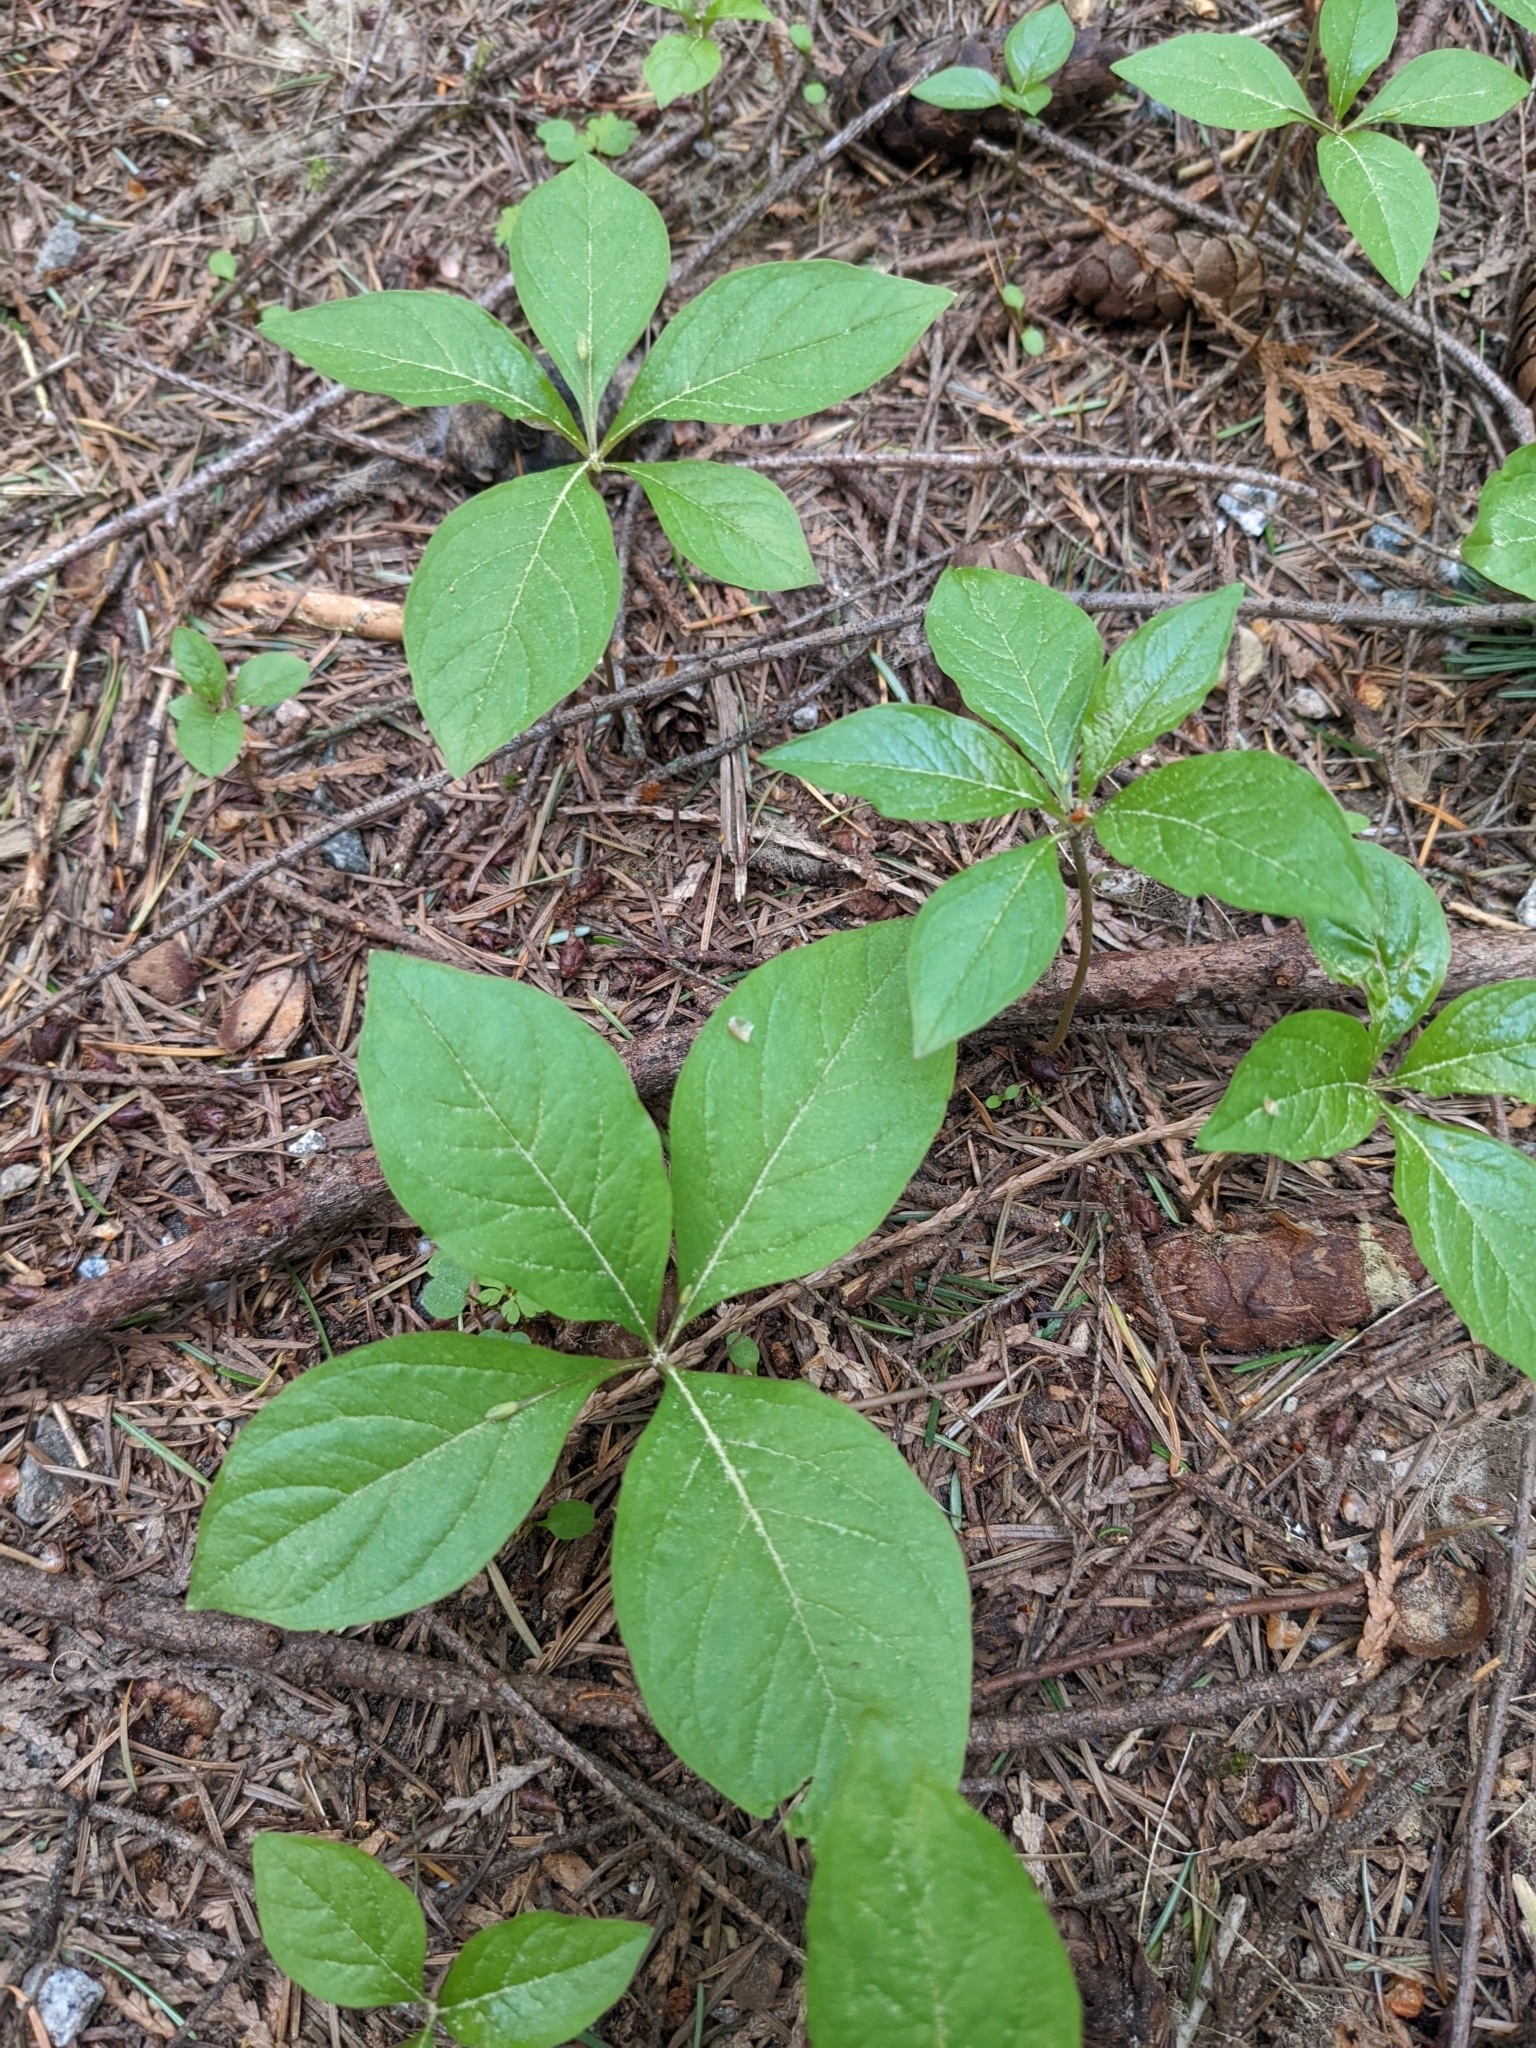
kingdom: Plantae
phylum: Tracheophyta
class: Magnoliopsida
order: Ericales
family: Primulaceae
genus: Lysimachia
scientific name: Lysimachia latifolia
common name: Pacific starflower
